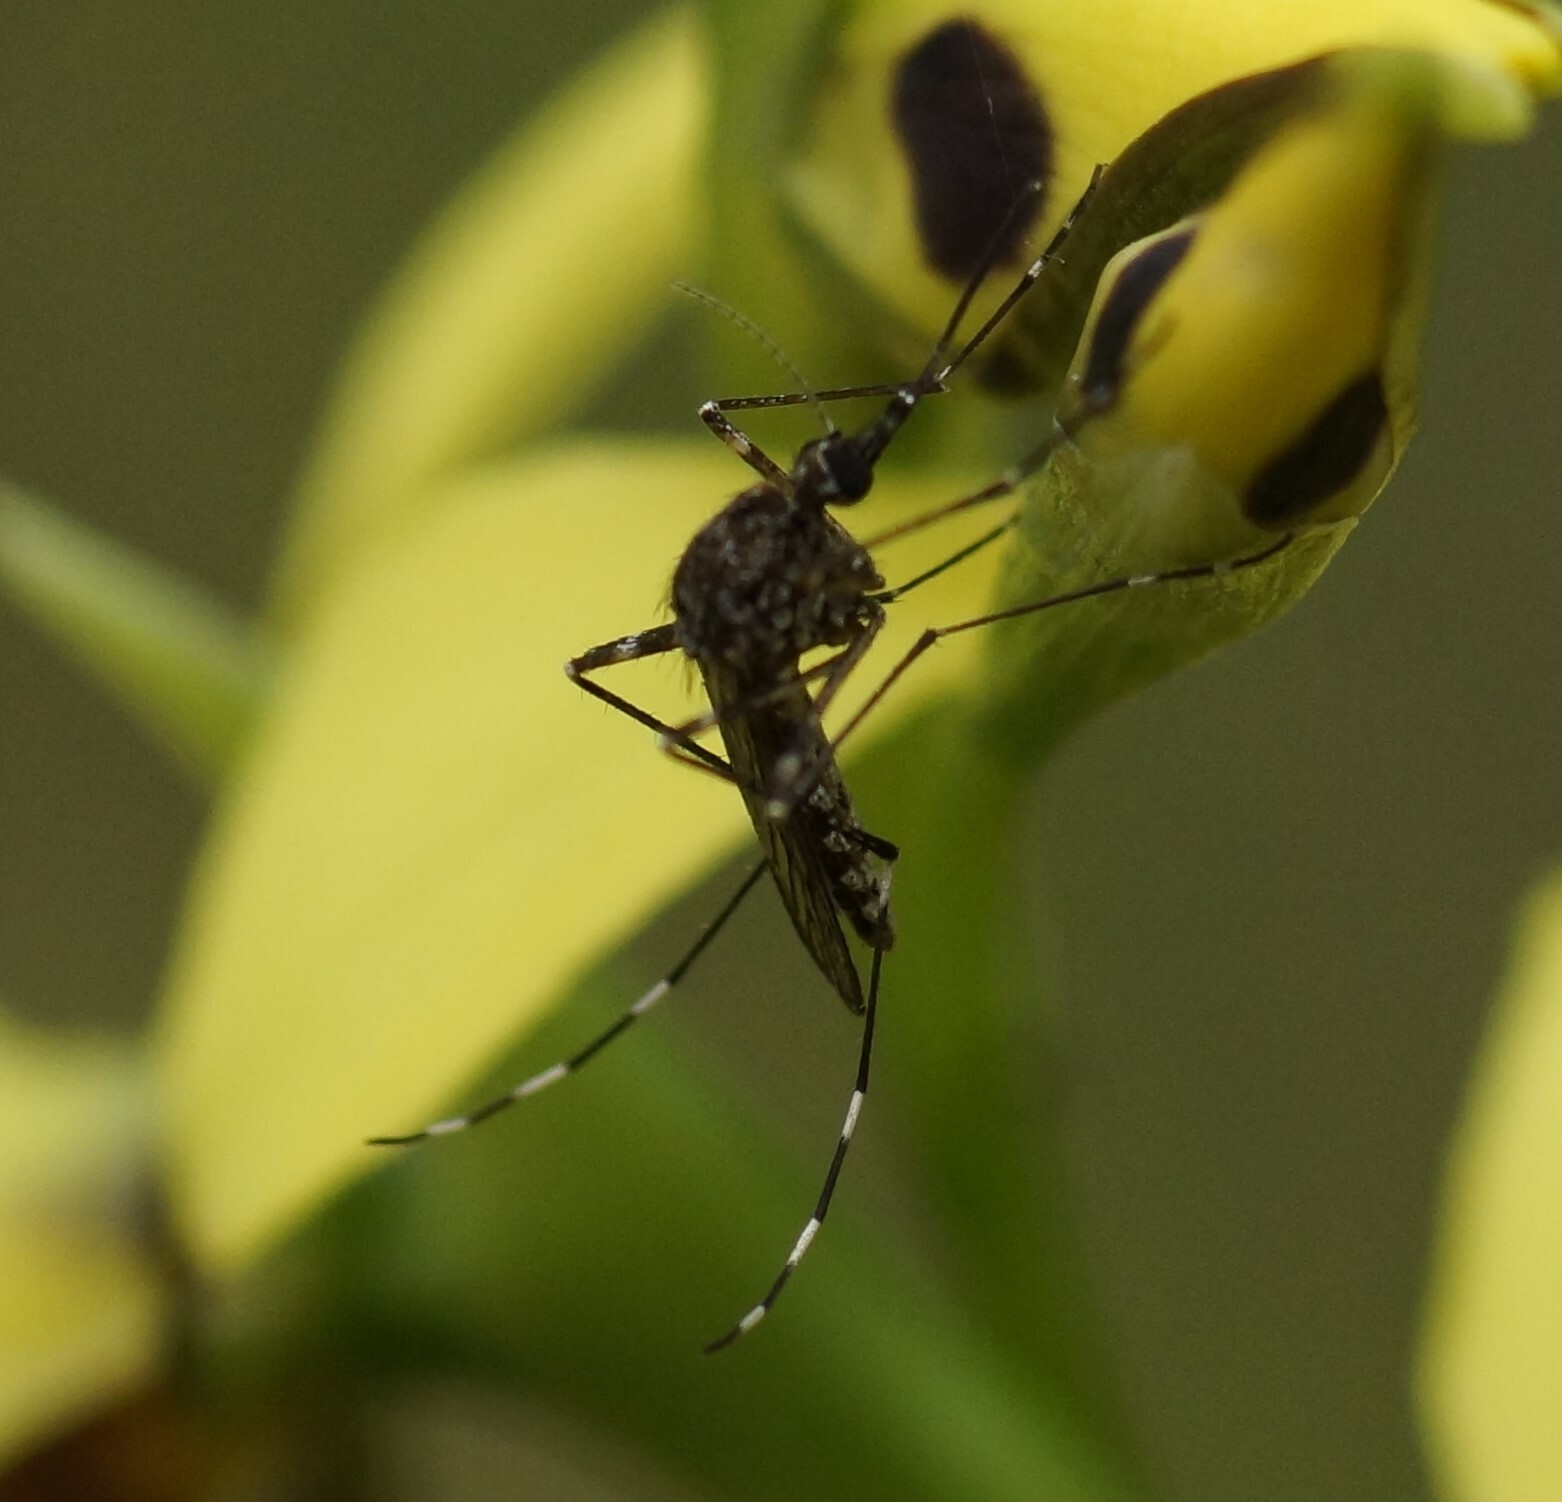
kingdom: Animalia
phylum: Arthropoda
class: Insecta
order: Diptera
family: Culicidae
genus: Aedes
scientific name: Aedes alboannulatus
